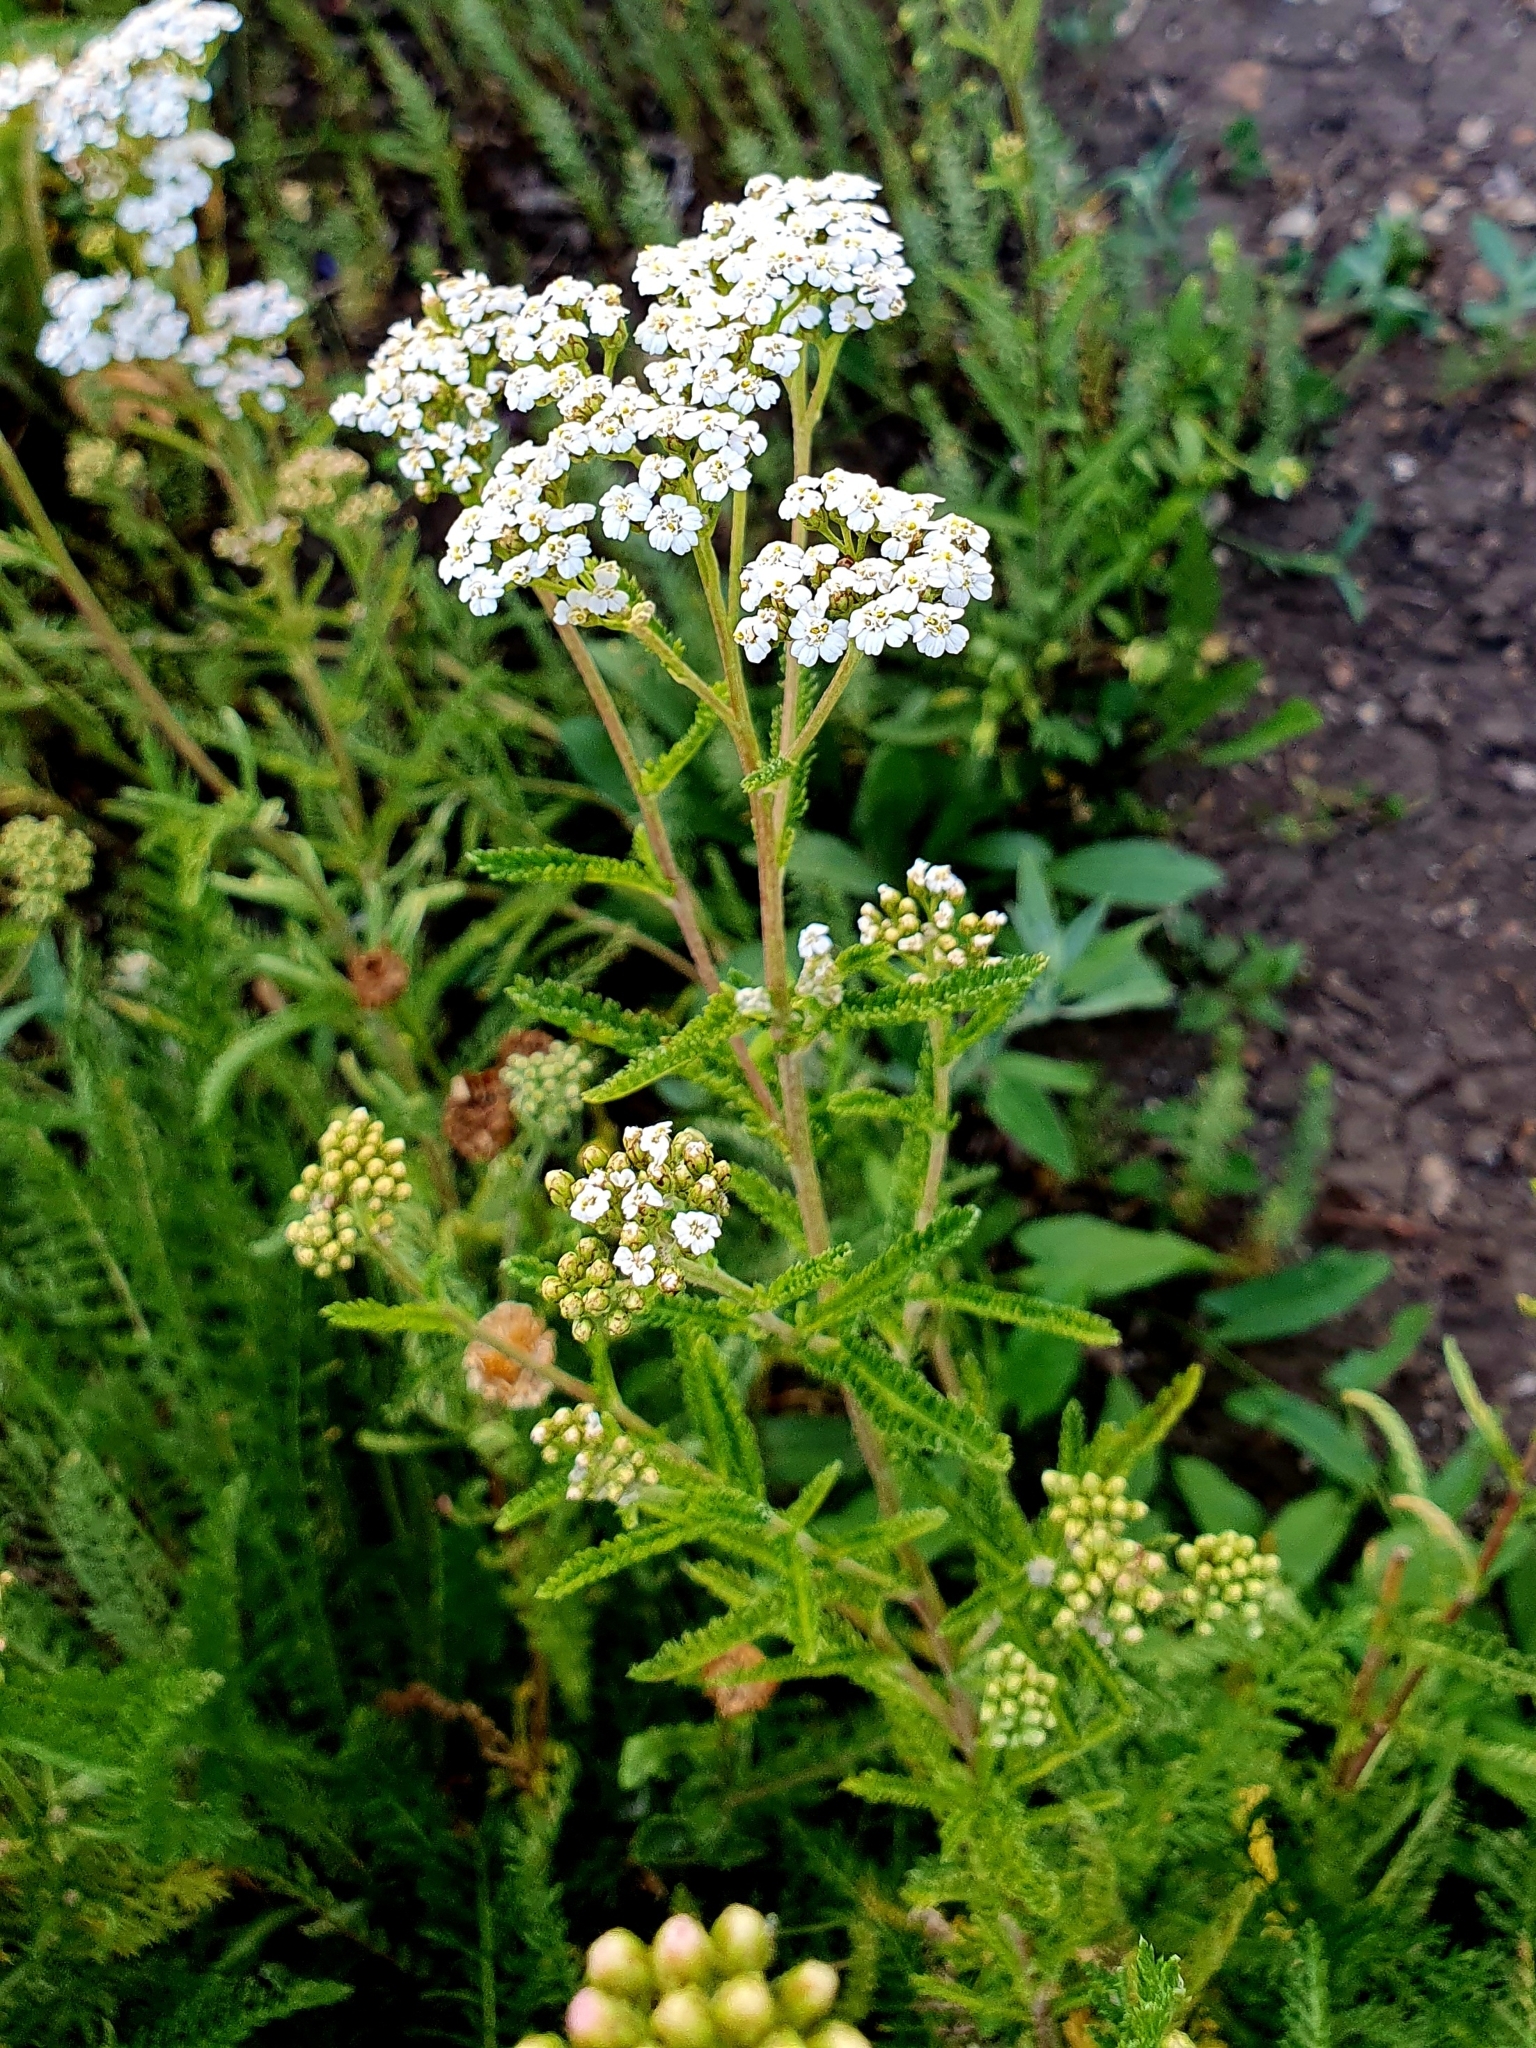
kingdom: Plantae
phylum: Tracheophyta
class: Magnoliopsida
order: Asterales
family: Asteraceae
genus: Achillea
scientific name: Achillea millefolium
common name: Yarrow
